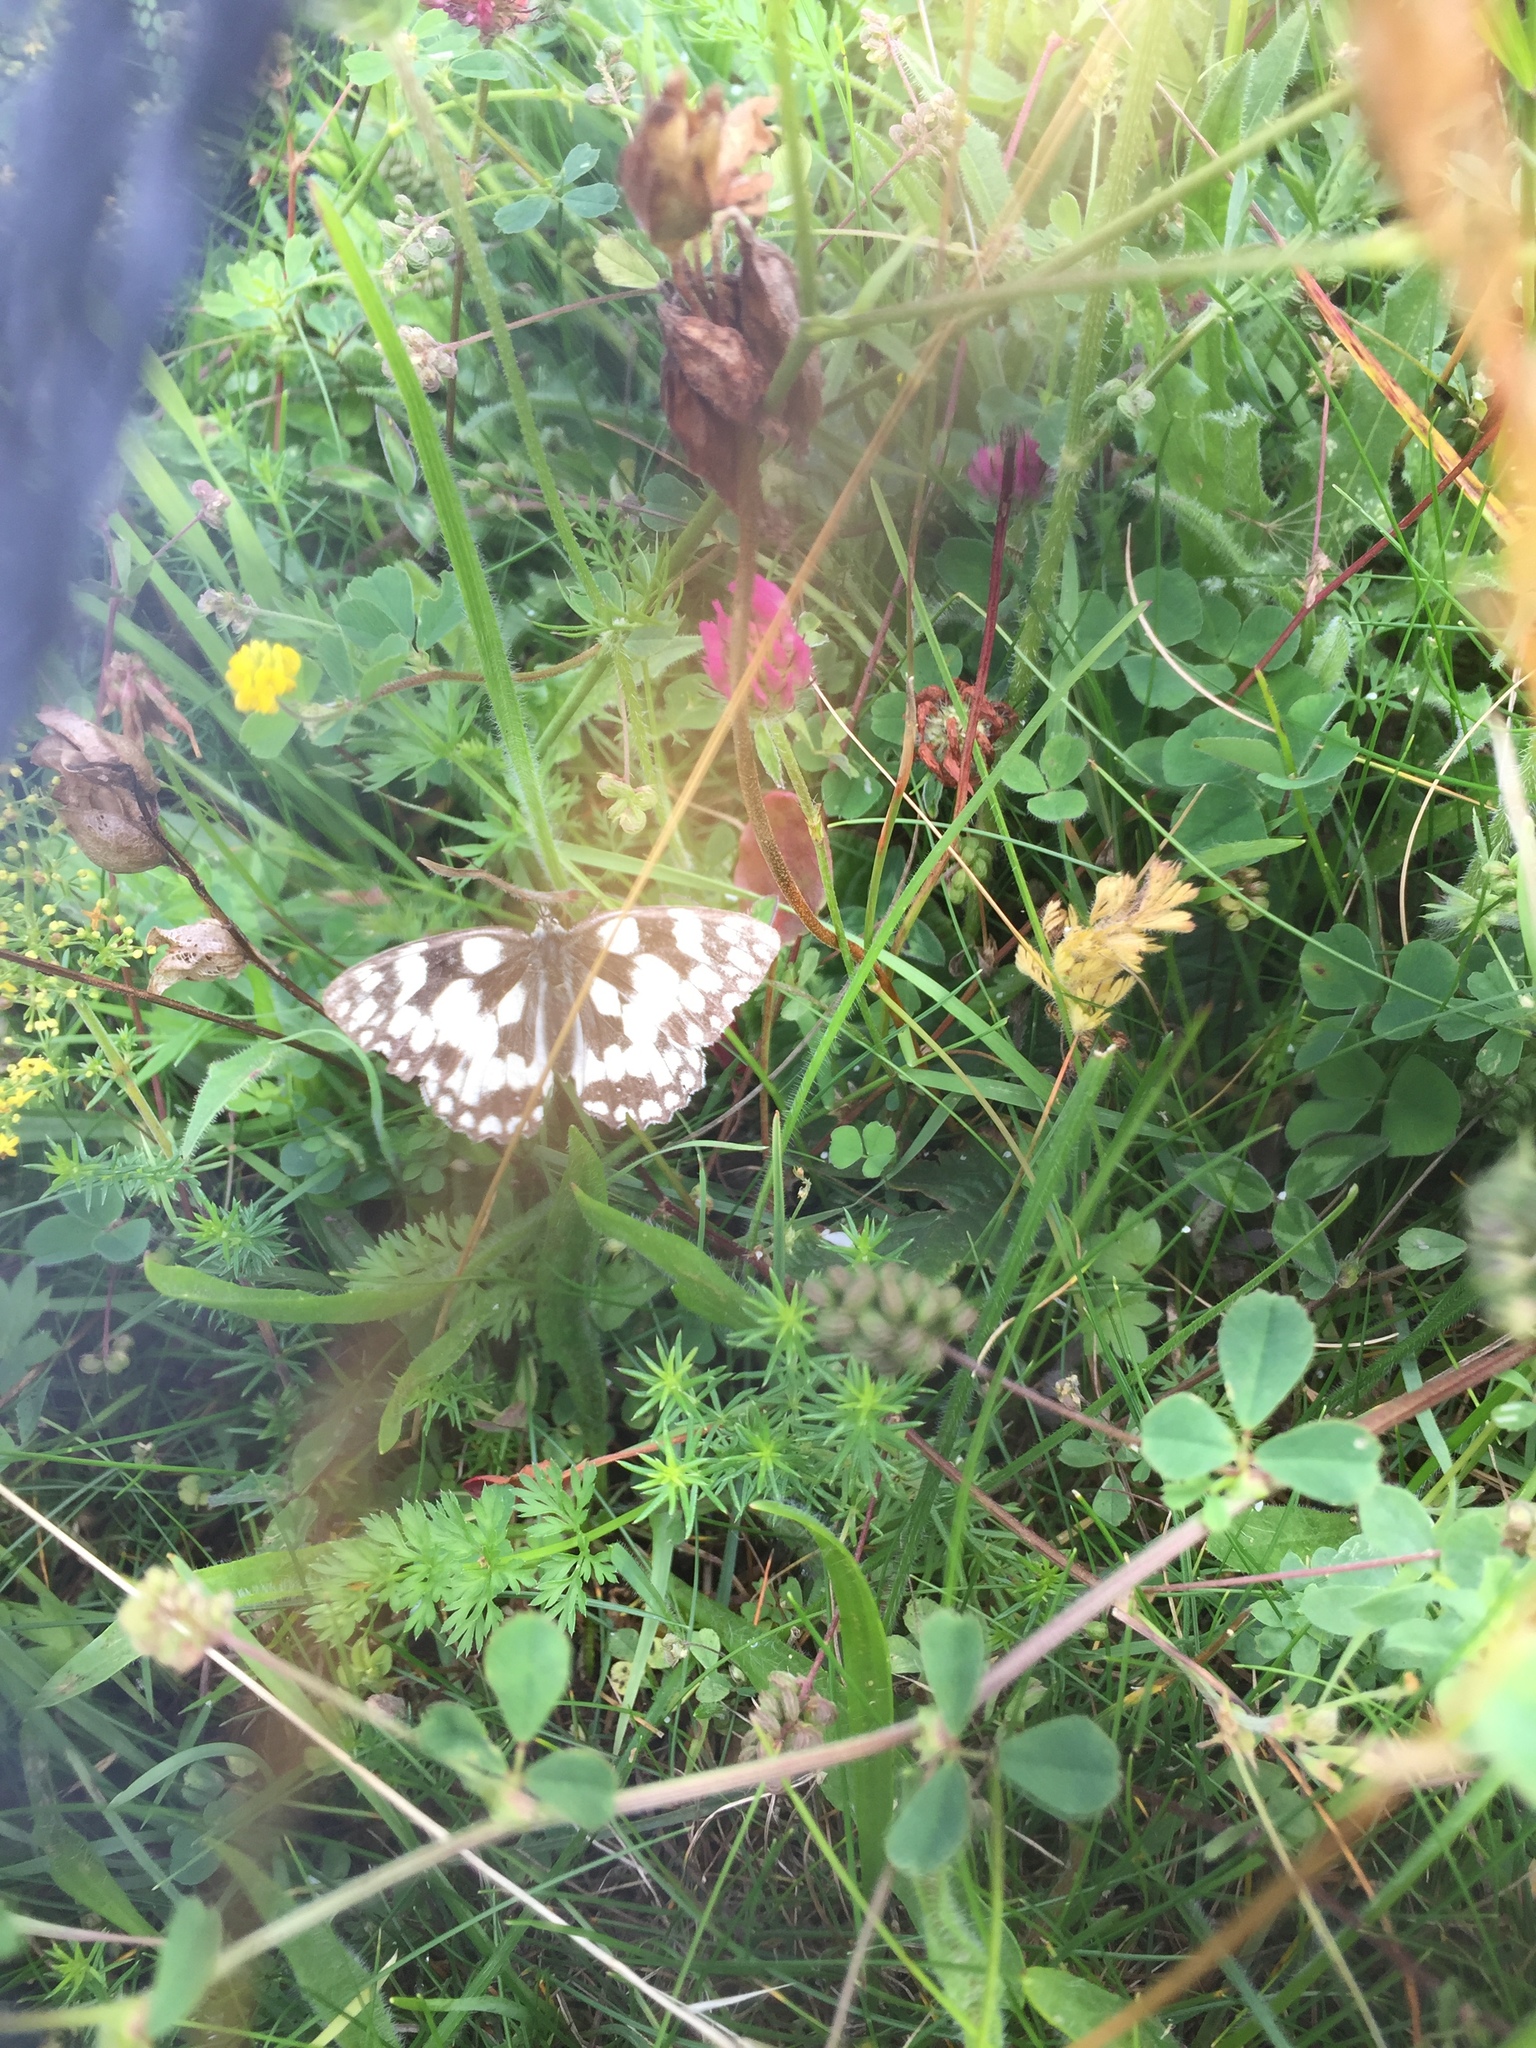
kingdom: Animalia
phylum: Arthropoda
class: Insecta
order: Lepidoptera
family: Nymphalidae
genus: Melanargia
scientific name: Melanargia galathea
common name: Marbled white
